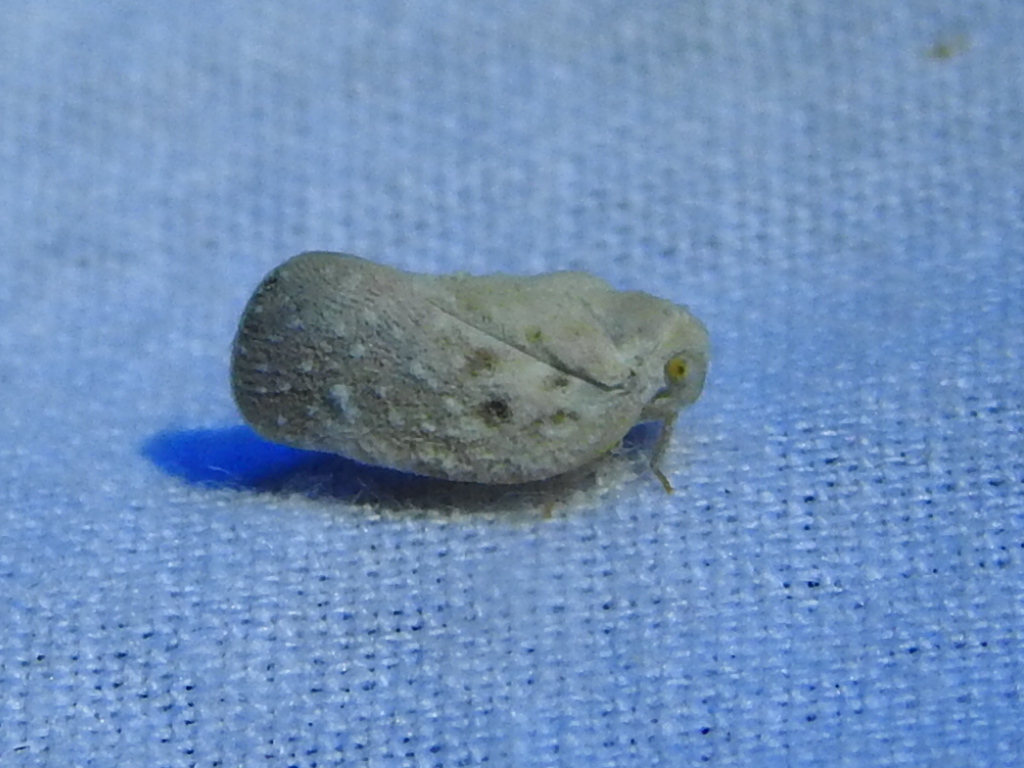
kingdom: Animalia
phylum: Arthropoda
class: Insecta
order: Hemiptera
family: Flatidae
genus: Metcalfa
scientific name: Metcalfa pruinosa
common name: Citrus flatid planthopper
